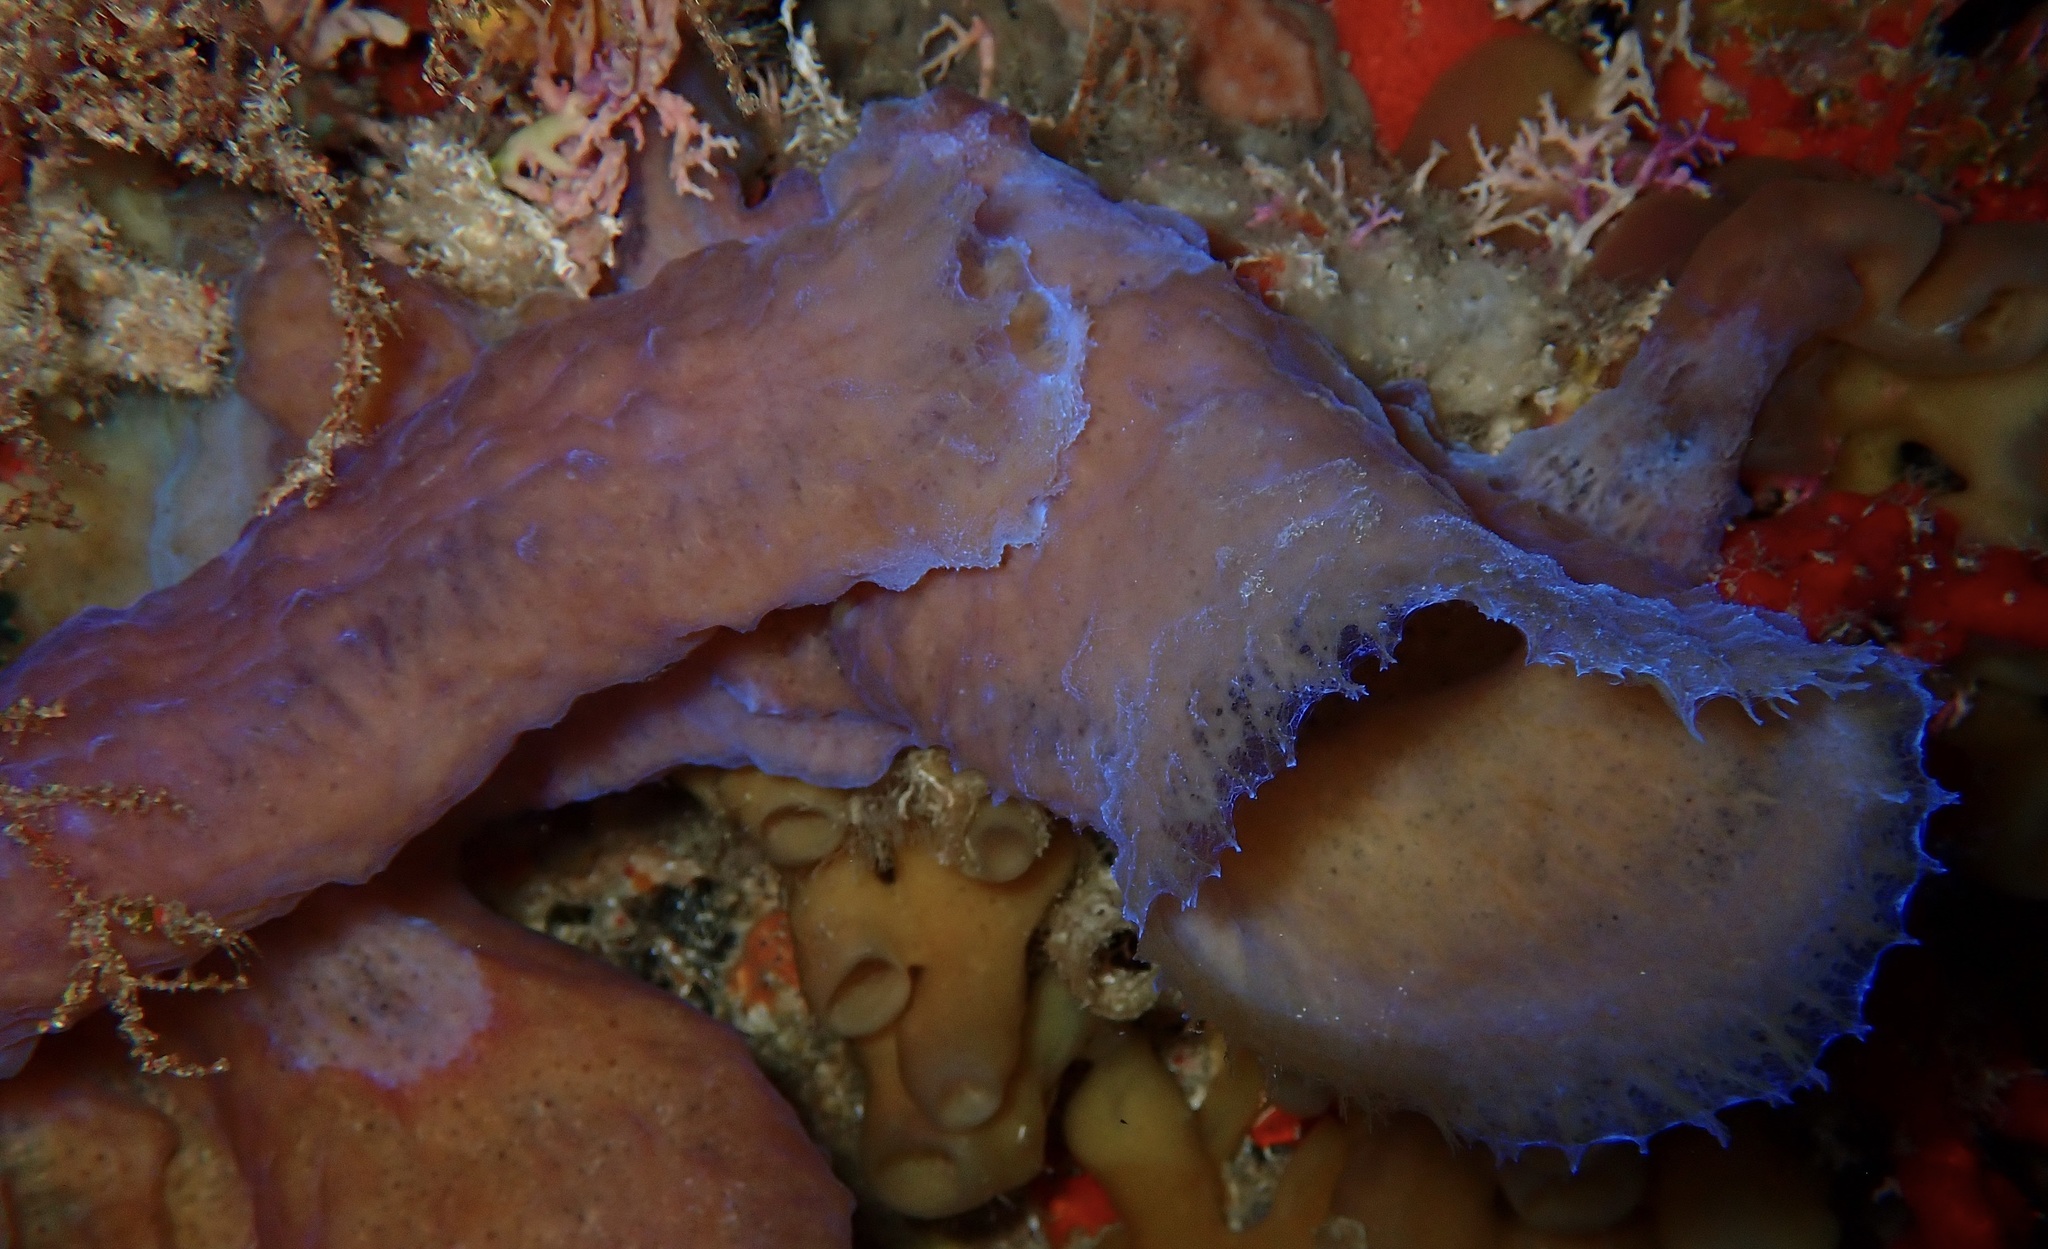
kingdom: Animalia
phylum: Porifera
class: Demospongiae
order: Haplosclerida
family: Callyspongiidae
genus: Callyspongia
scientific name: Callyspongia plicifera
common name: Azure vase sponge
